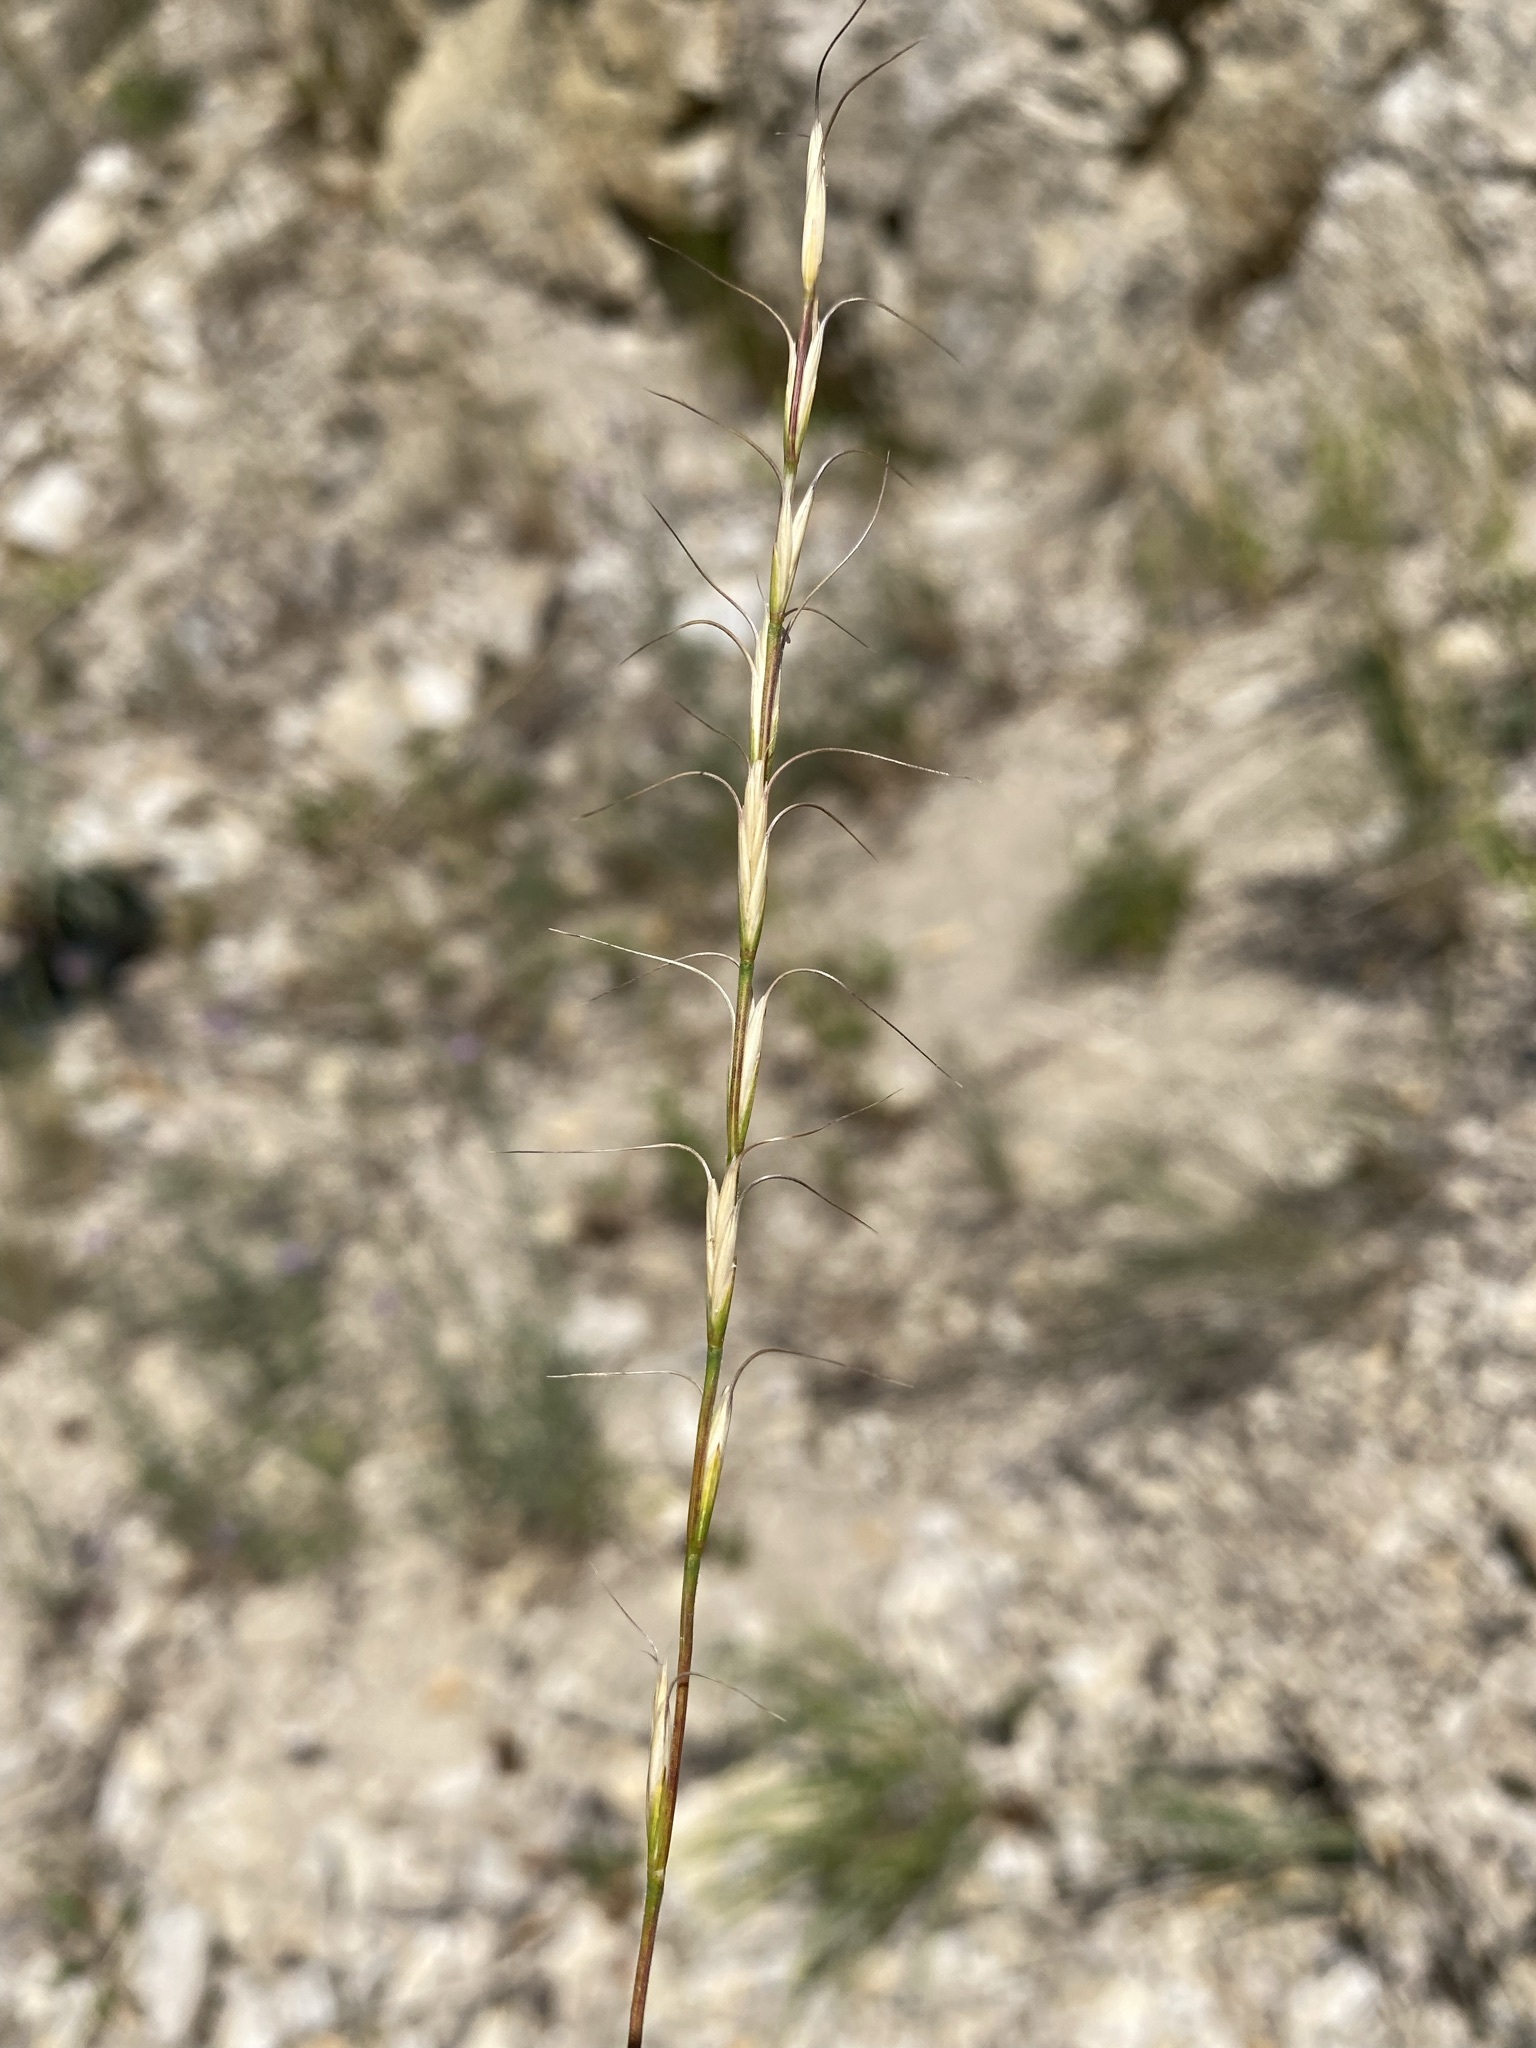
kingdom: Plantae
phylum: Tracheophyta
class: Liliopsida
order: Poales
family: Poaceae
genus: Pseudoroegneria
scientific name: Pseudoroegneria spicata
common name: Bluebunch wheatgrass
